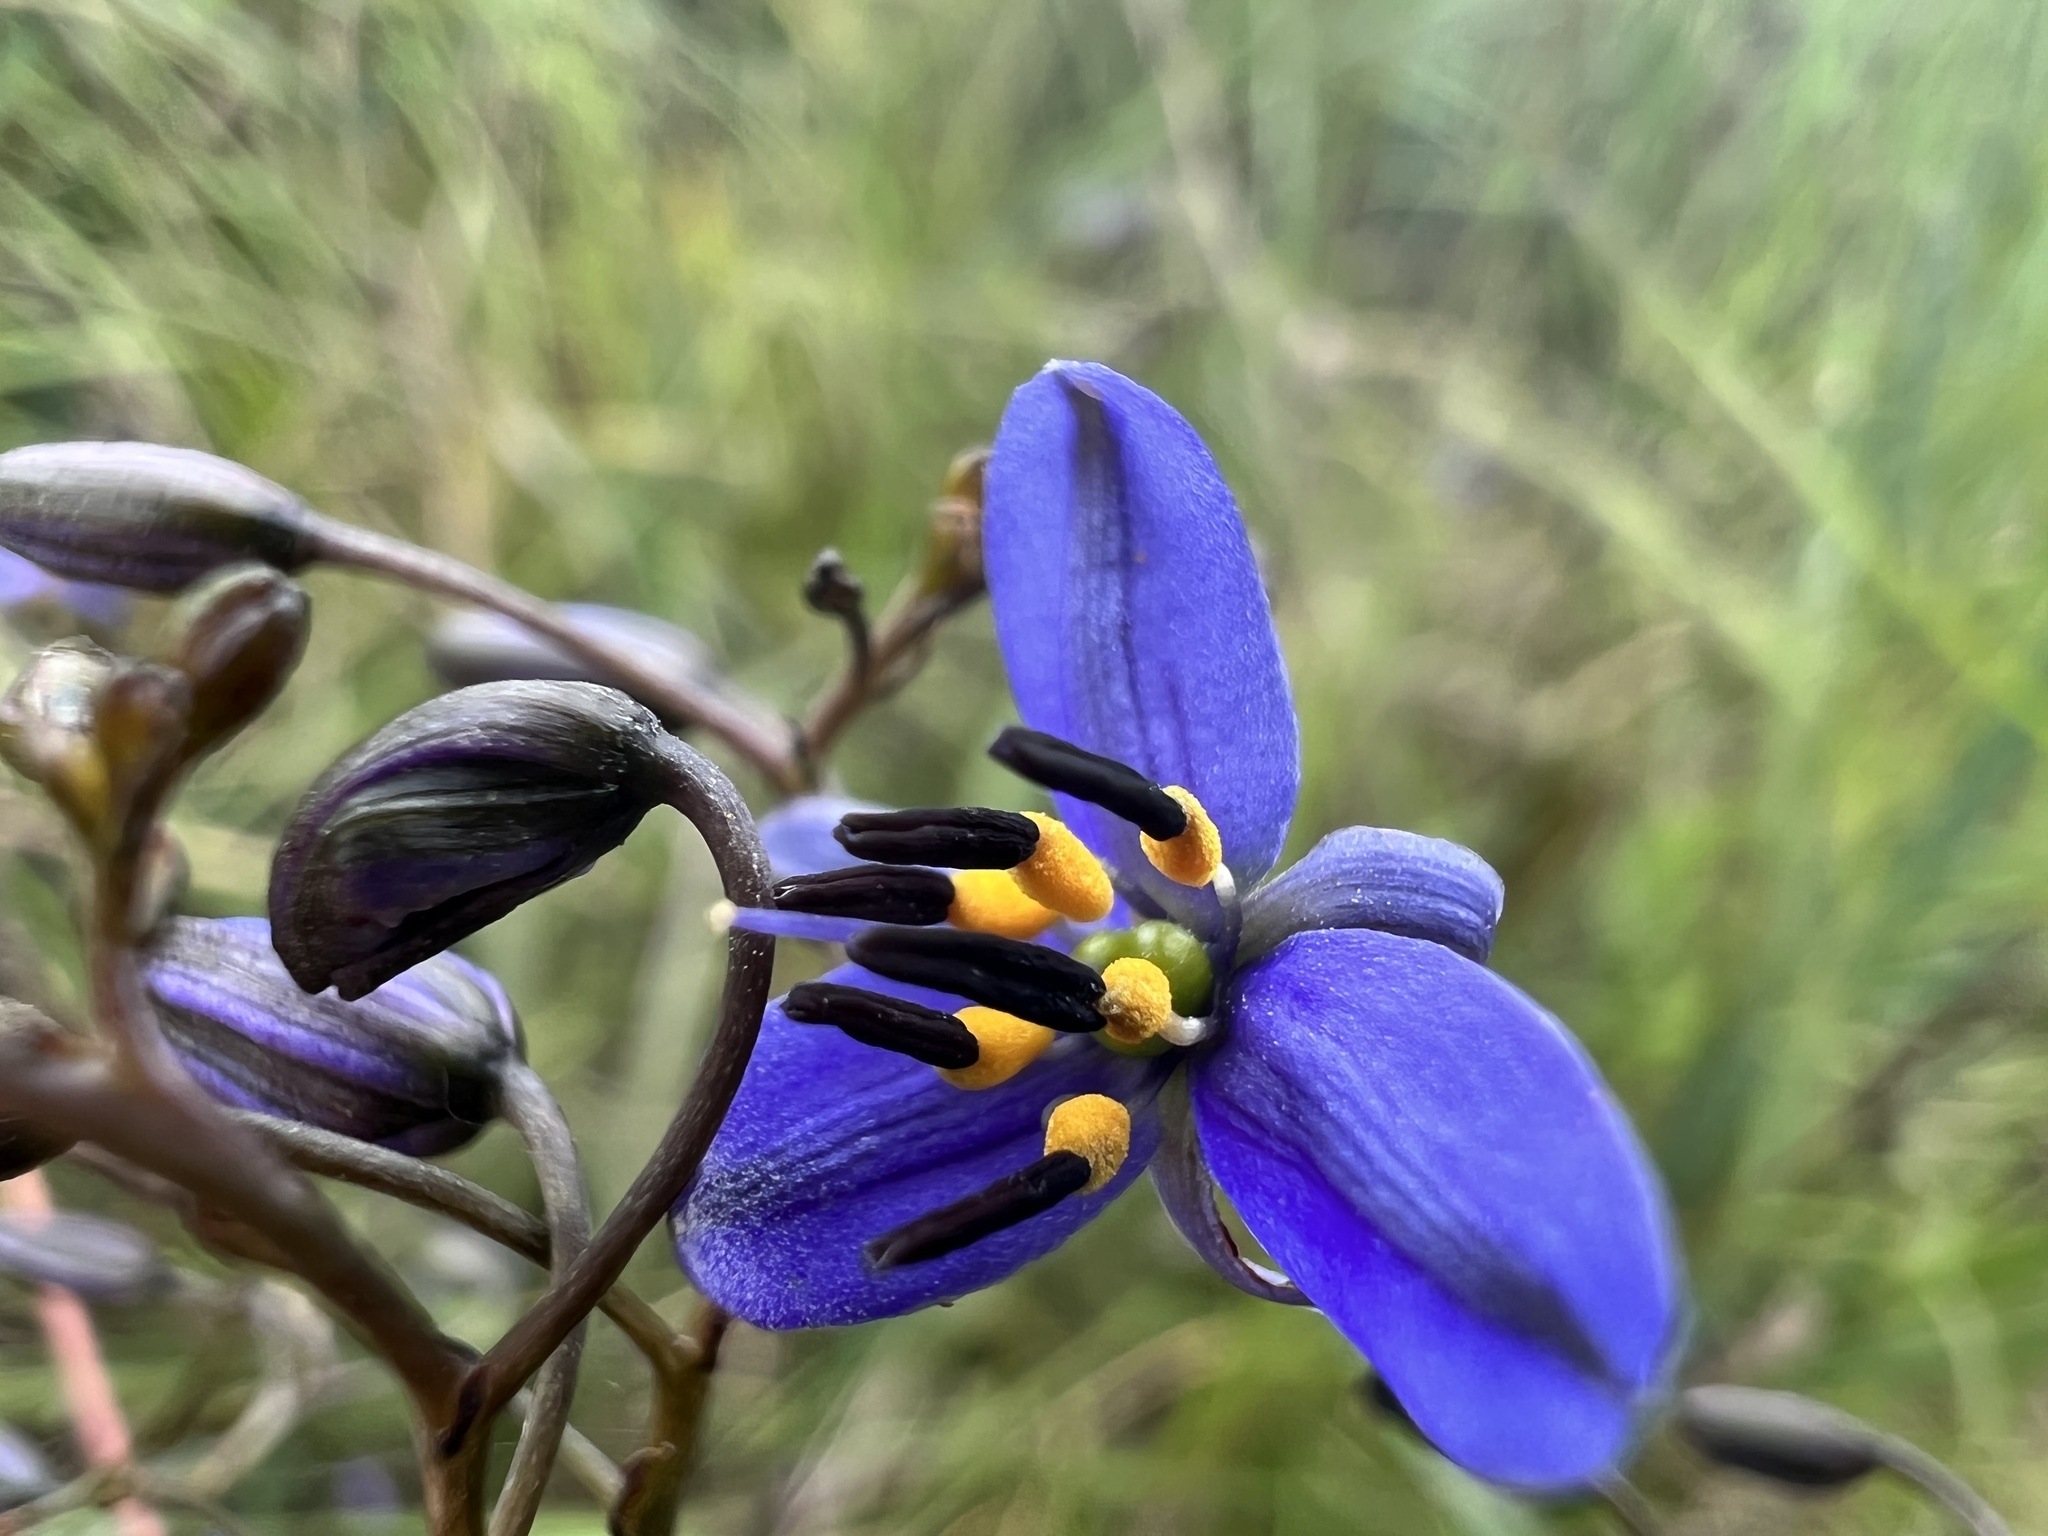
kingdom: Plantae
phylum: Tracheophyta
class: Liliopsida
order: Asparagales
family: Asphodelaceae
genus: Dianella
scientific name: Dianella revoluta
